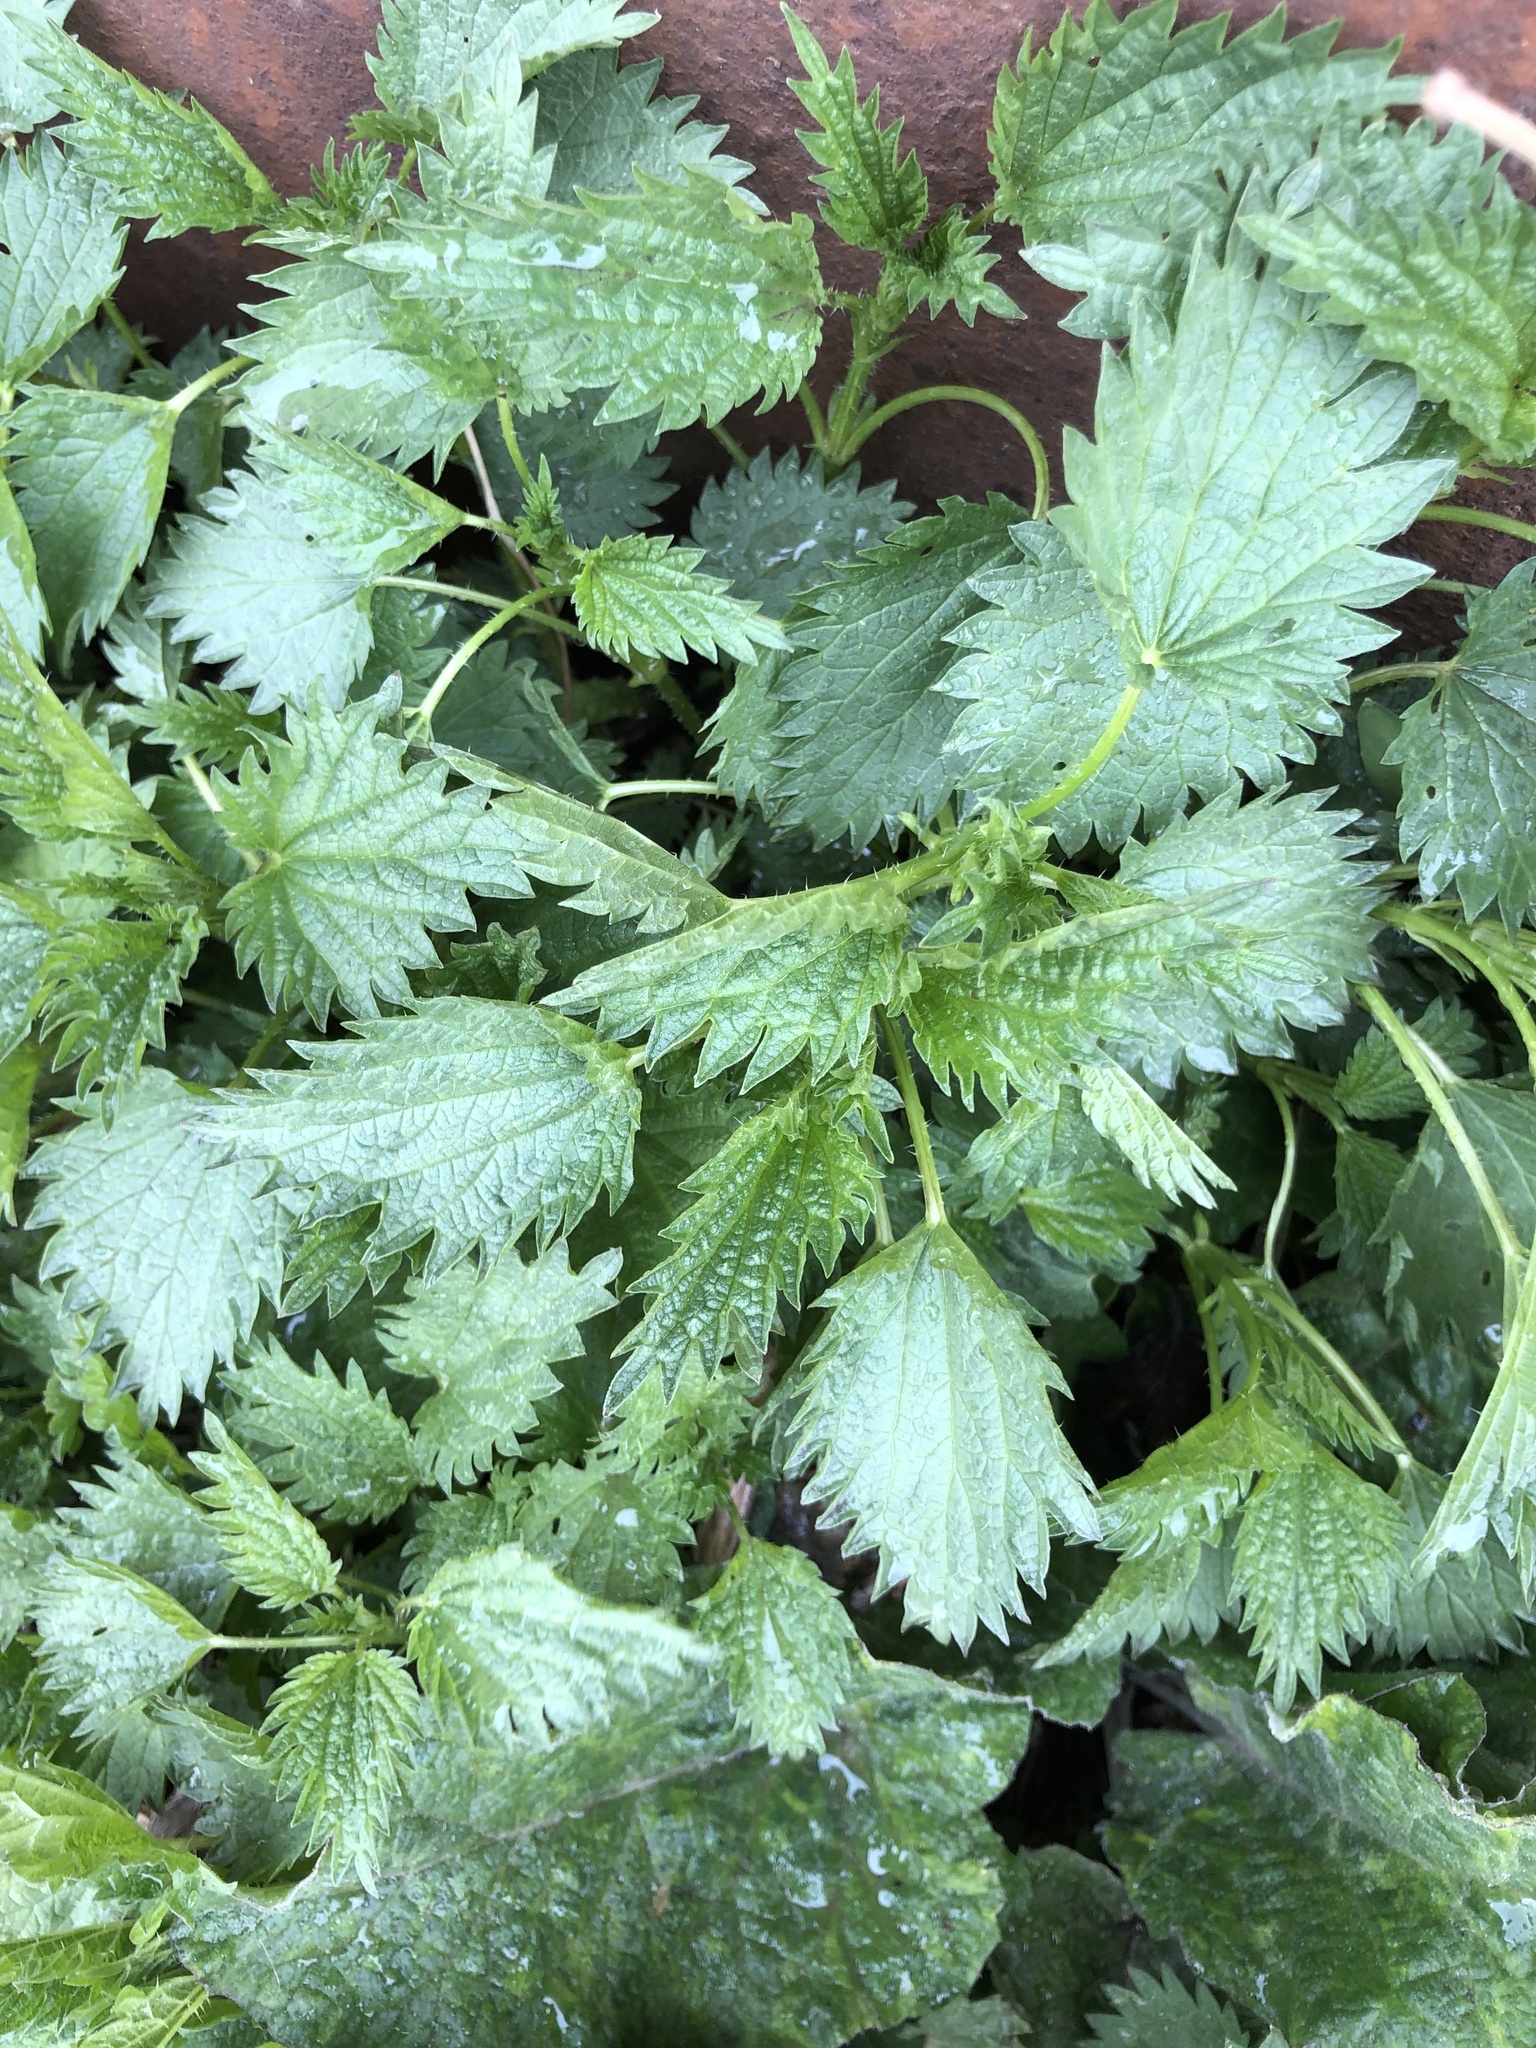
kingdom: Plantae
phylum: Tracheophyta
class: Magnoliopsida
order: Rosales
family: Urticaceae
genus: Urtica
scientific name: Urtica dioica
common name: Common nettle
